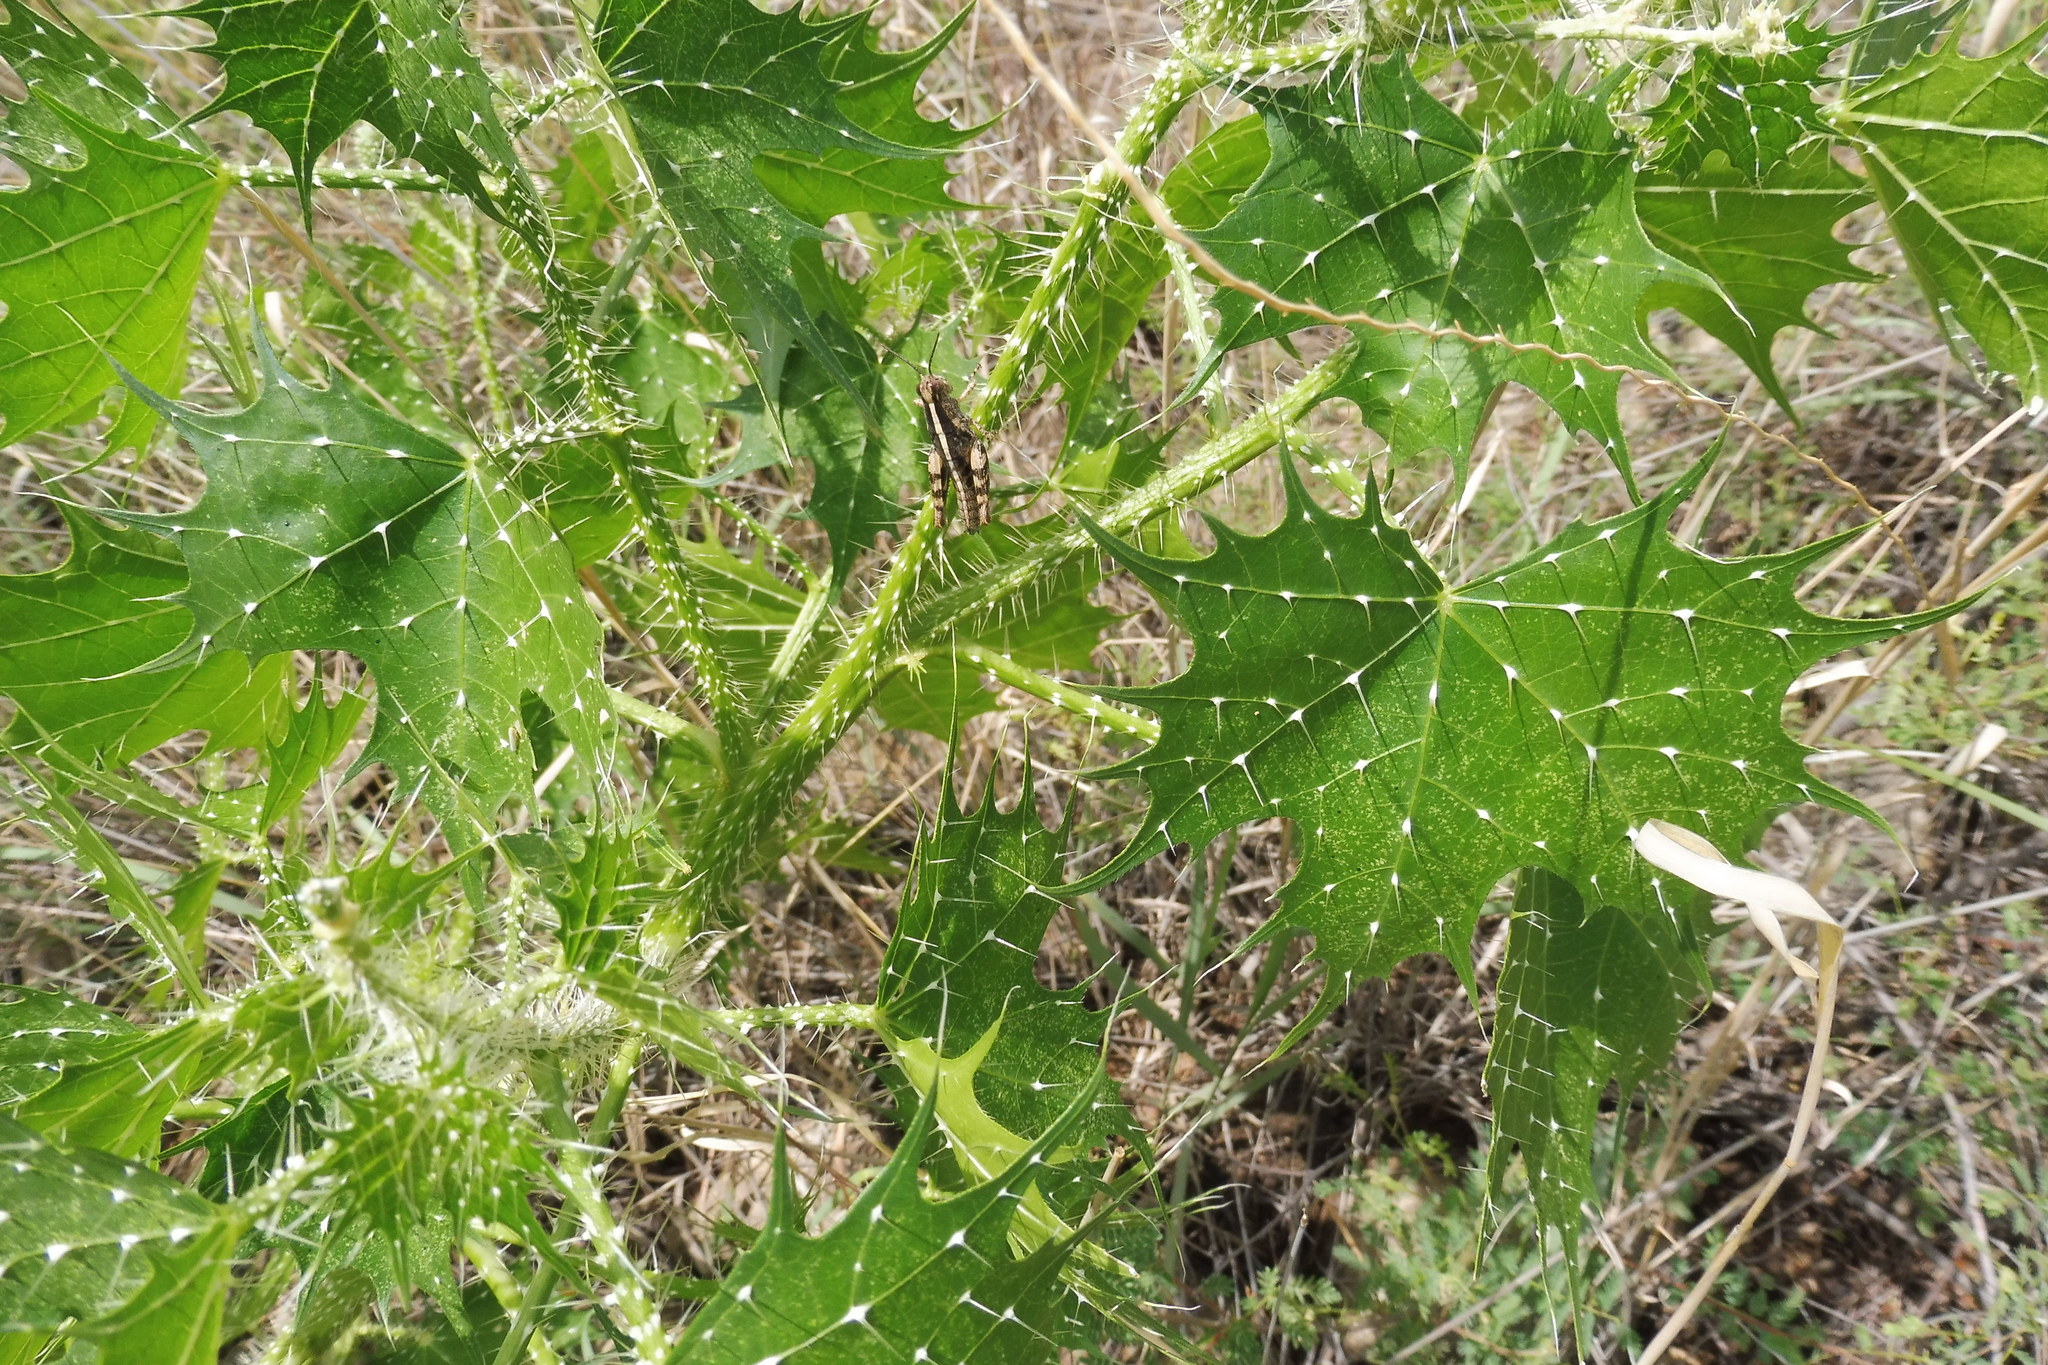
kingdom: Plantae
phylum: Tracheophyta
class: Magnoliopsida
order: Malpighiales
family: Euphorbiaceae
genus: Cnidoscolus
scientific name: Cnidoscolus angustidens
